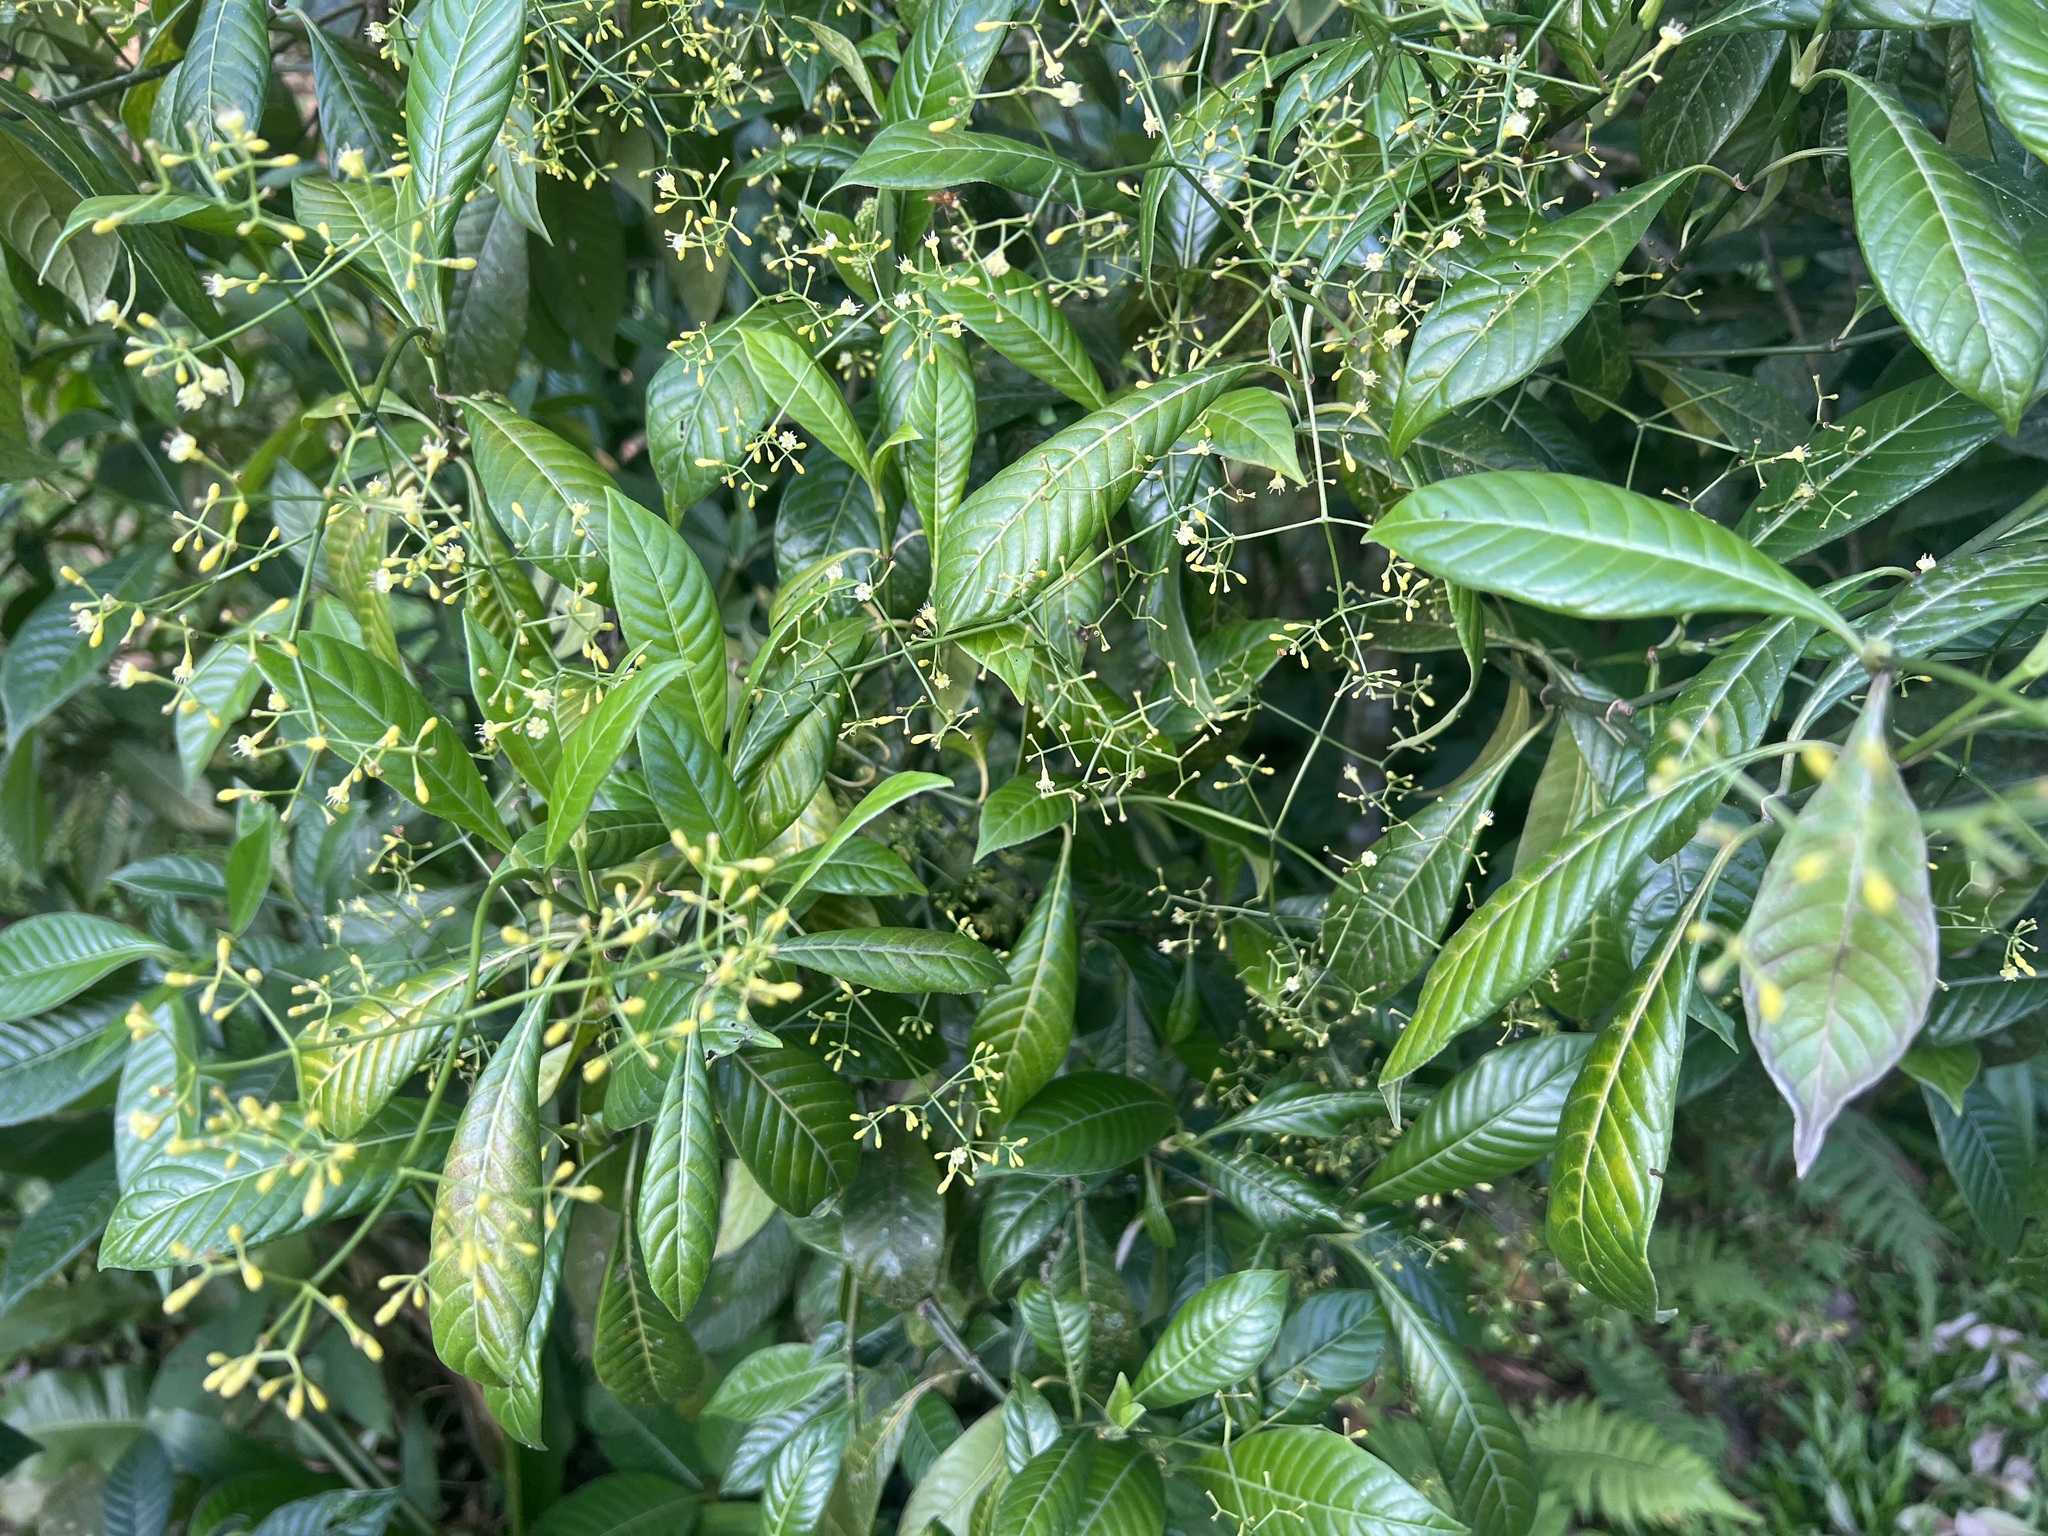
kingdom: Plantae
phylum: Tracheophyta
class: Magnoliopsida
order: Gentianales
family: Rubiaceae
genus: Psychotria
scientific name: Psychotria marginata
